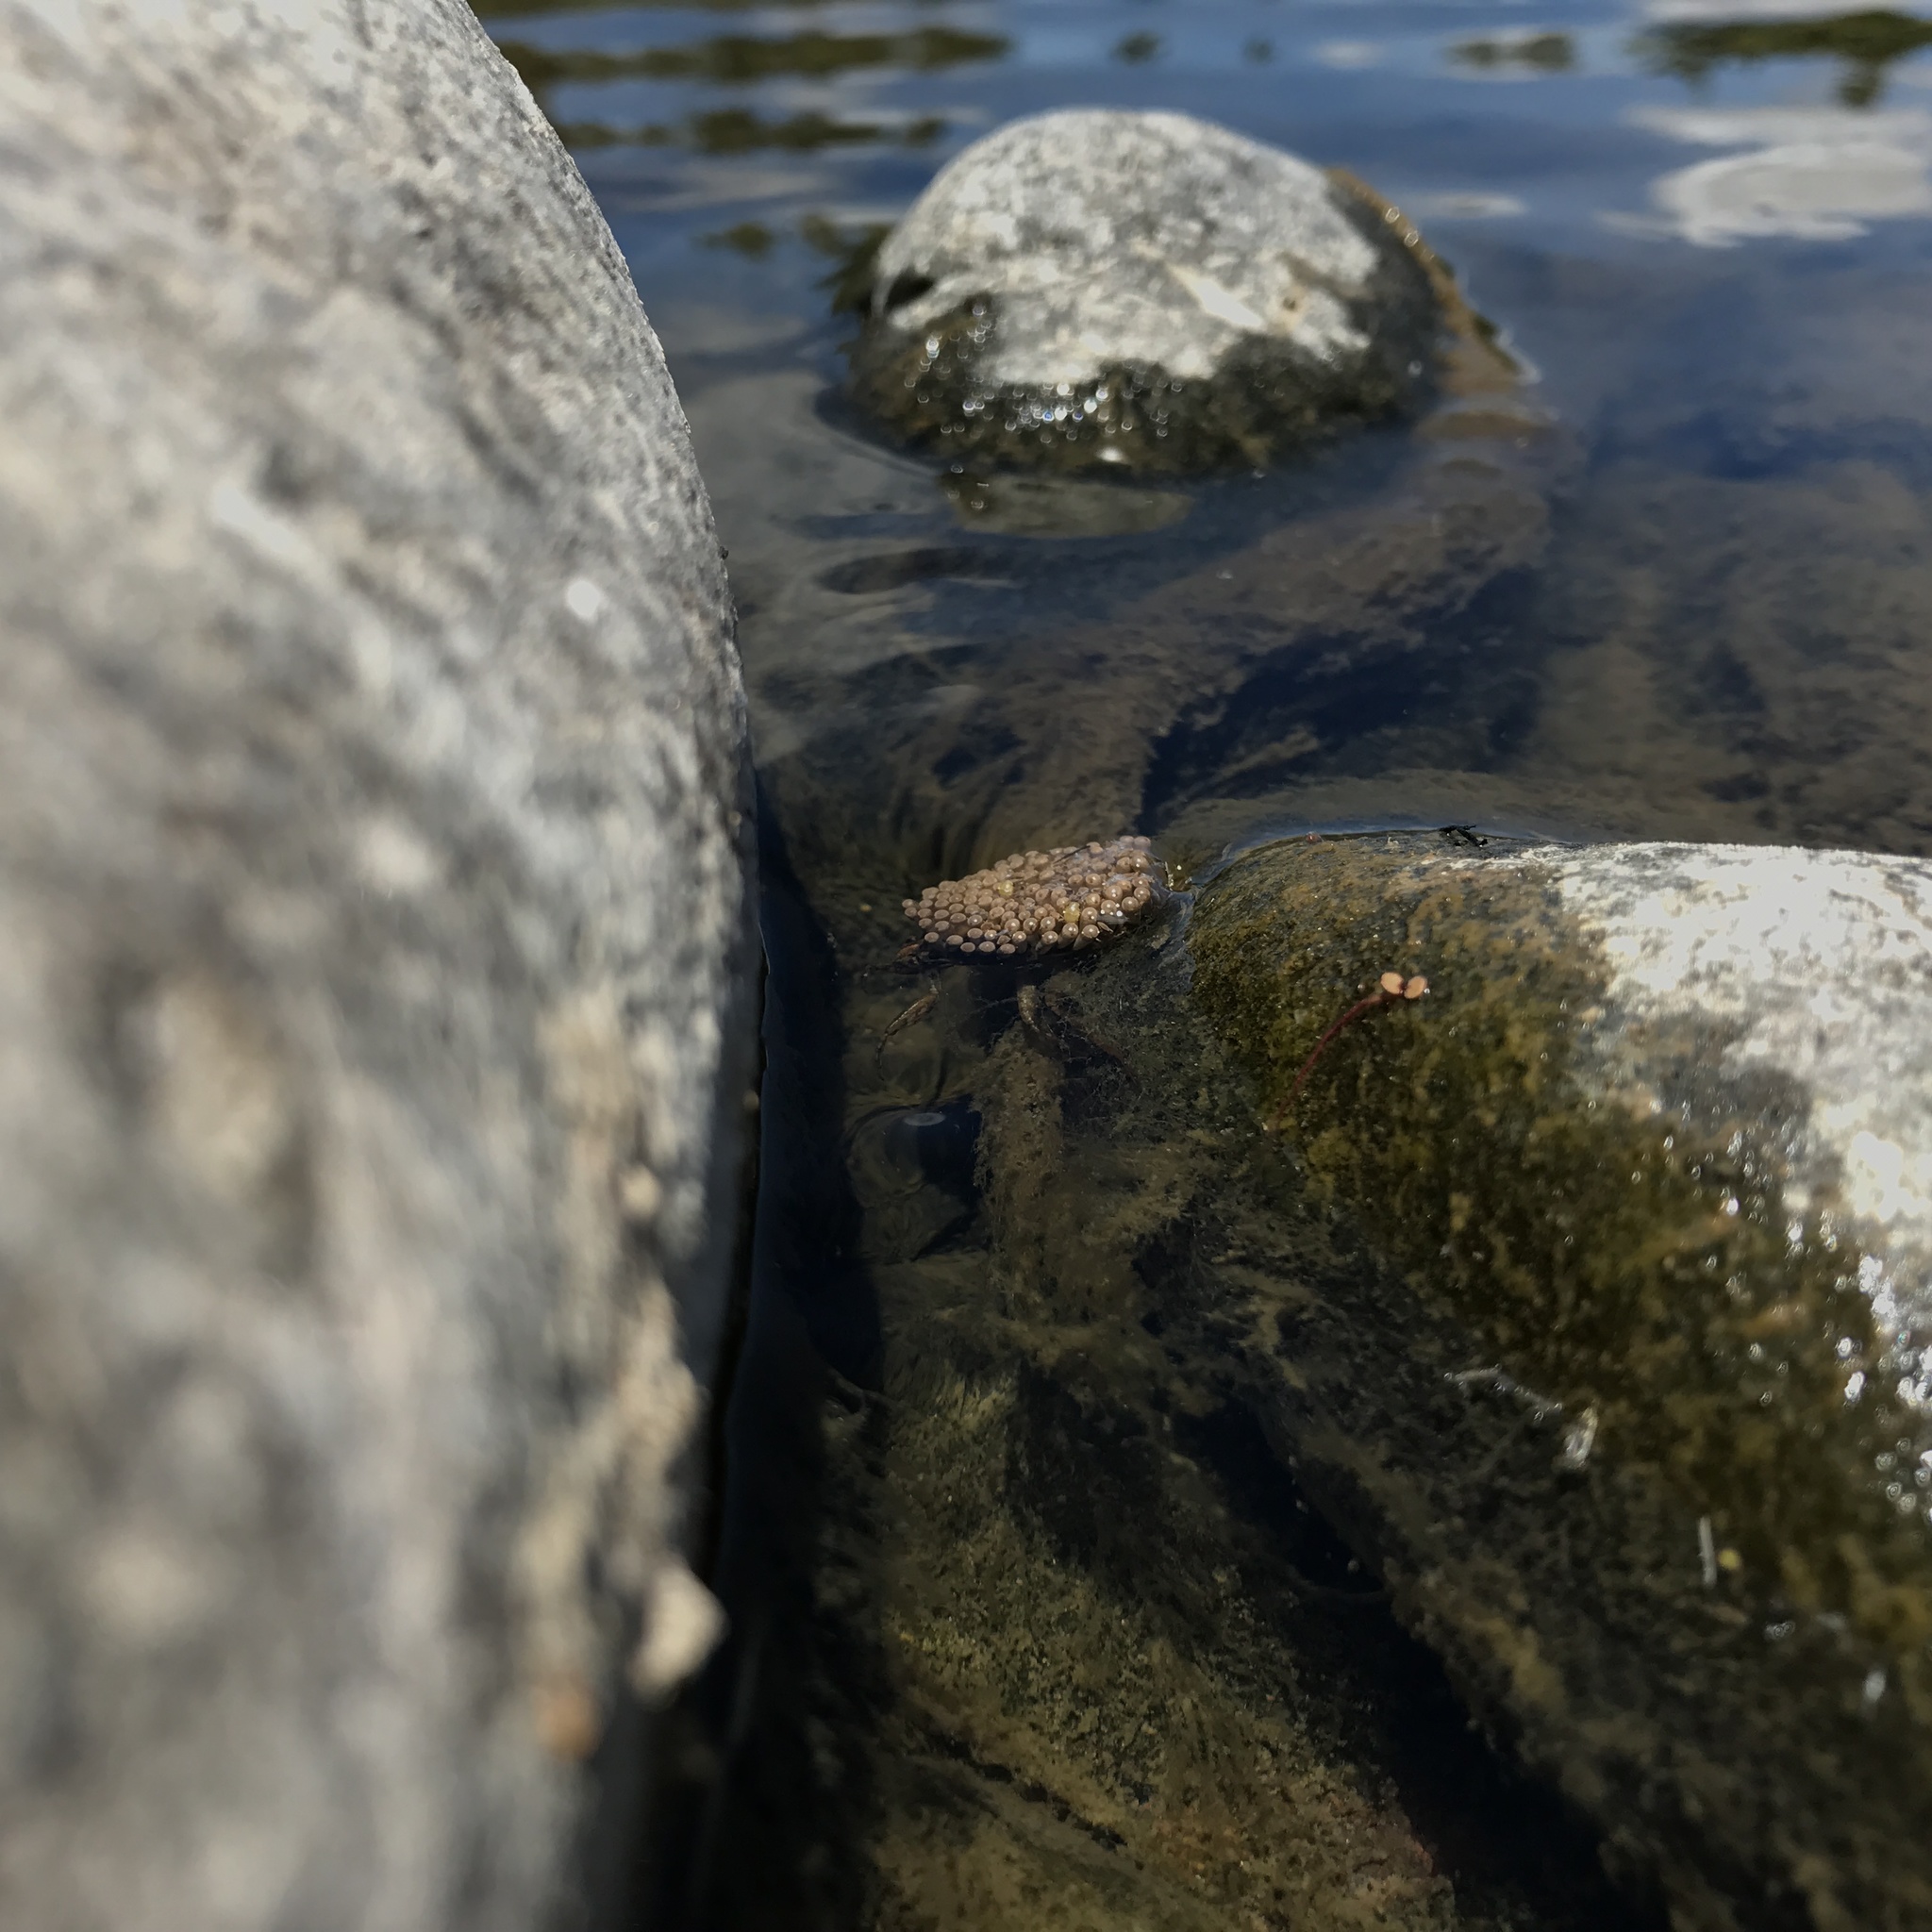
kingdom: Animalia
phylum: Arthropoda
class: Insecta
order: Hemiptera
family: Belostomatidae
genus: Belostoma
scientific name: Belostoma
